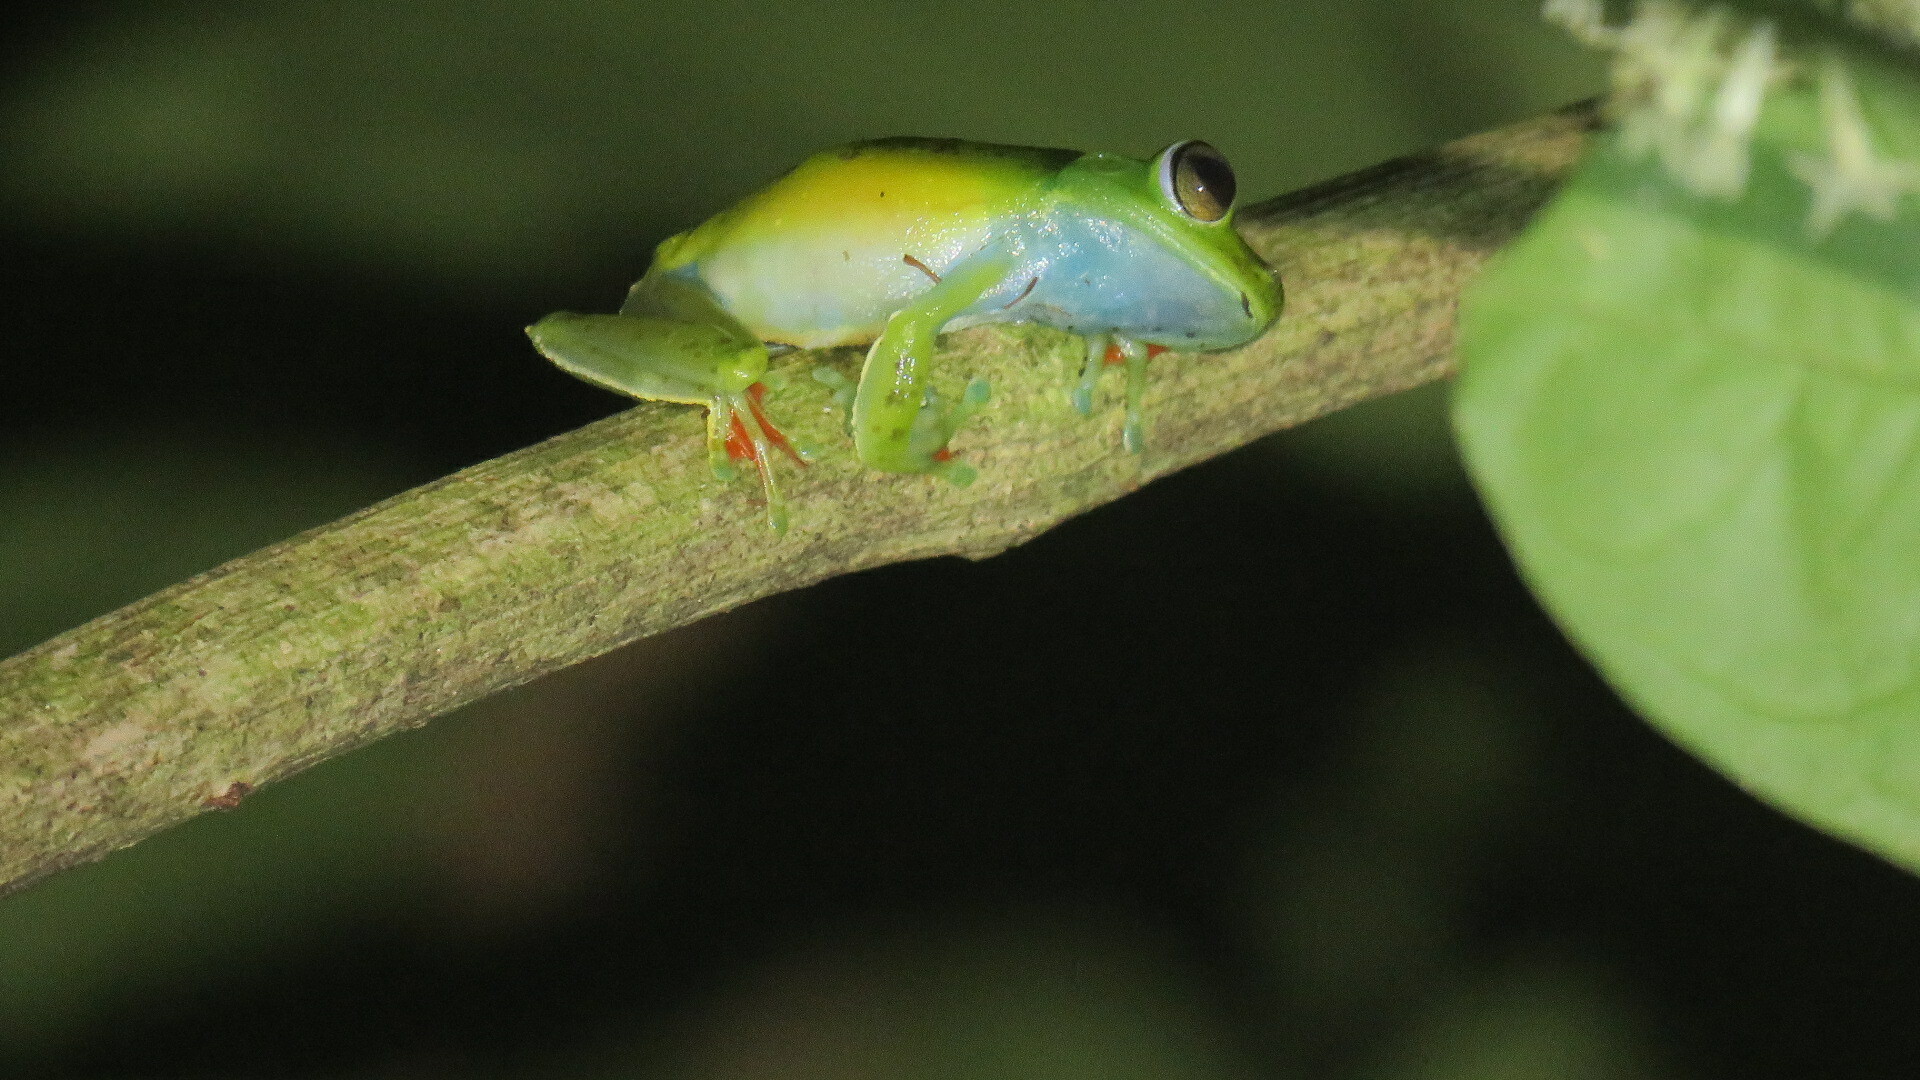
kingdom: Animalia
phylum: Chordata
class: Amphibia
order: Anura
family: Hylidae
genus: Boana
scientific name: Boana rufitela
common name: Canal zone treefrog
